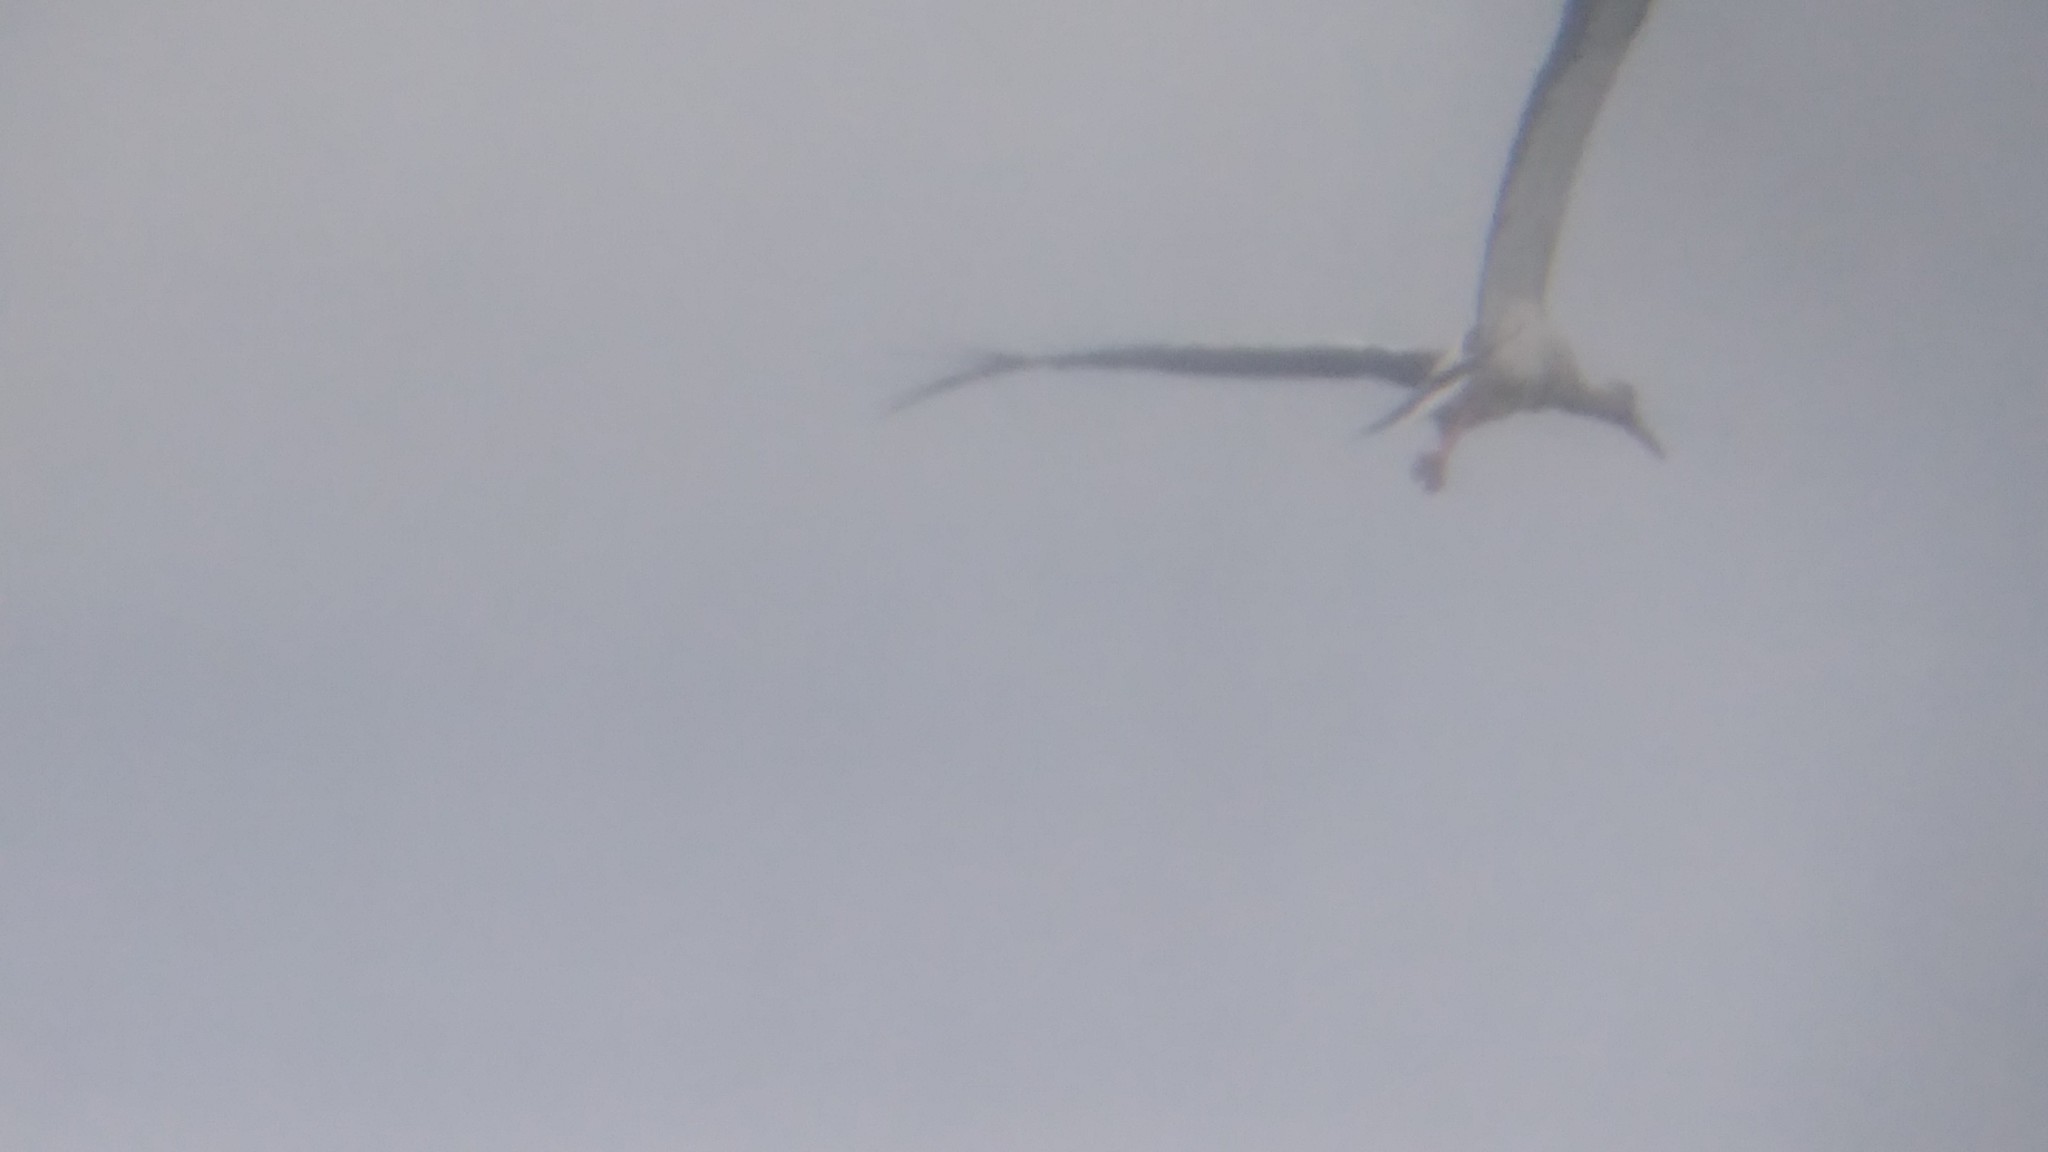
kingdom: Animalia
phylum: Chordata
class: Aves
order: Ciconiiformes
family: Ciconiidae
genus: Ciconia
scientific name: Ciconia maguari
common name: Maguari stork
